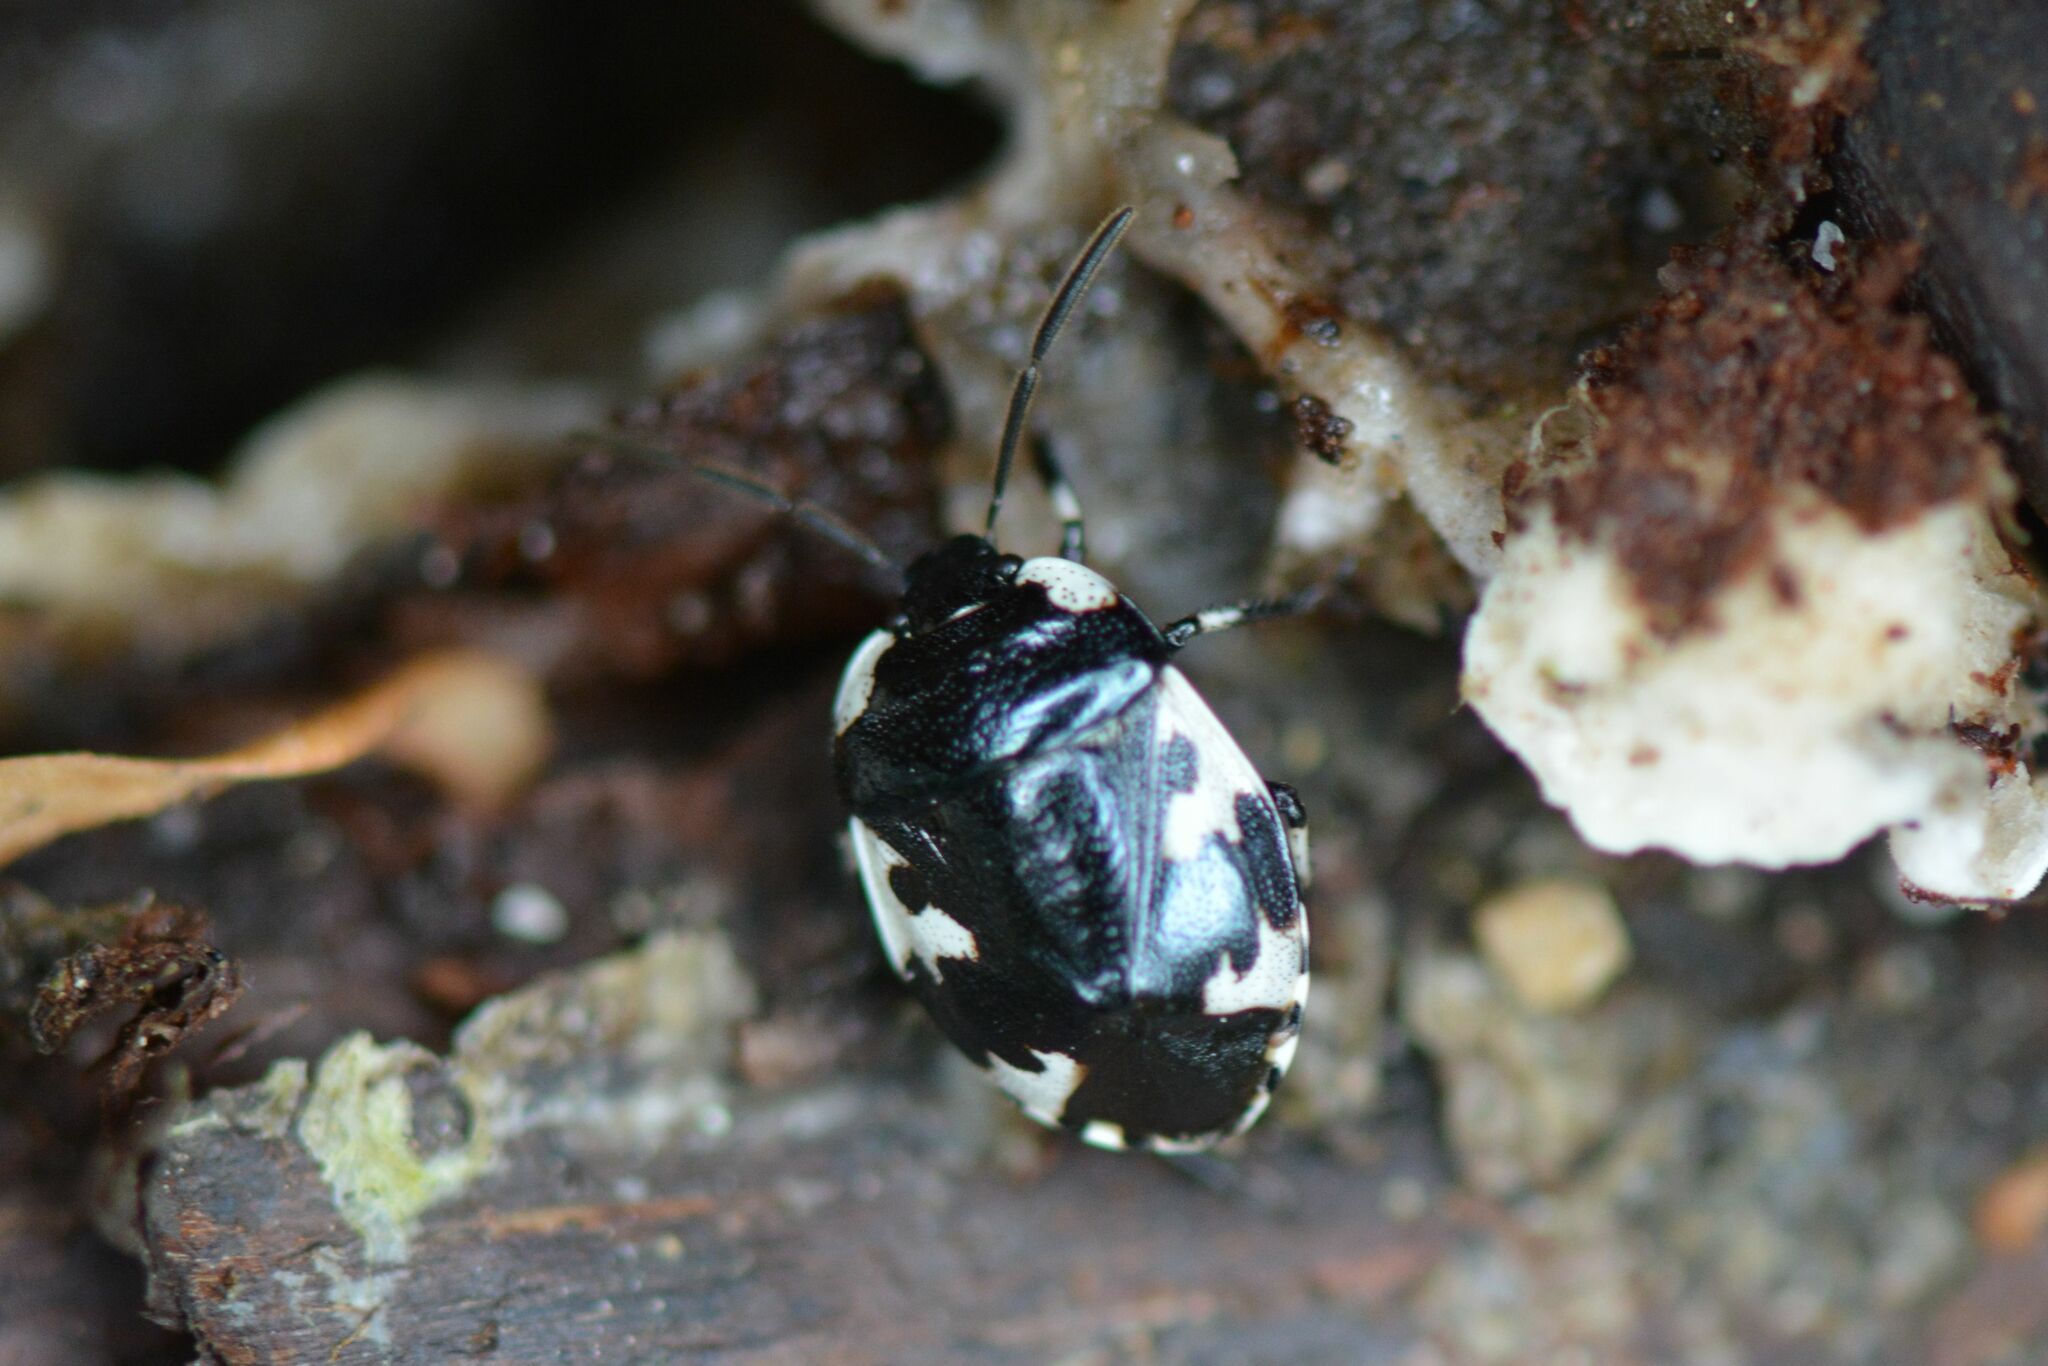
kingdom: Animalia
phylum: Arthropoda
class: Insecta
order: Hemiptera
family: Cydnidae
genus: Tritomegas
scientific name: Tritomegas rotundipennis
